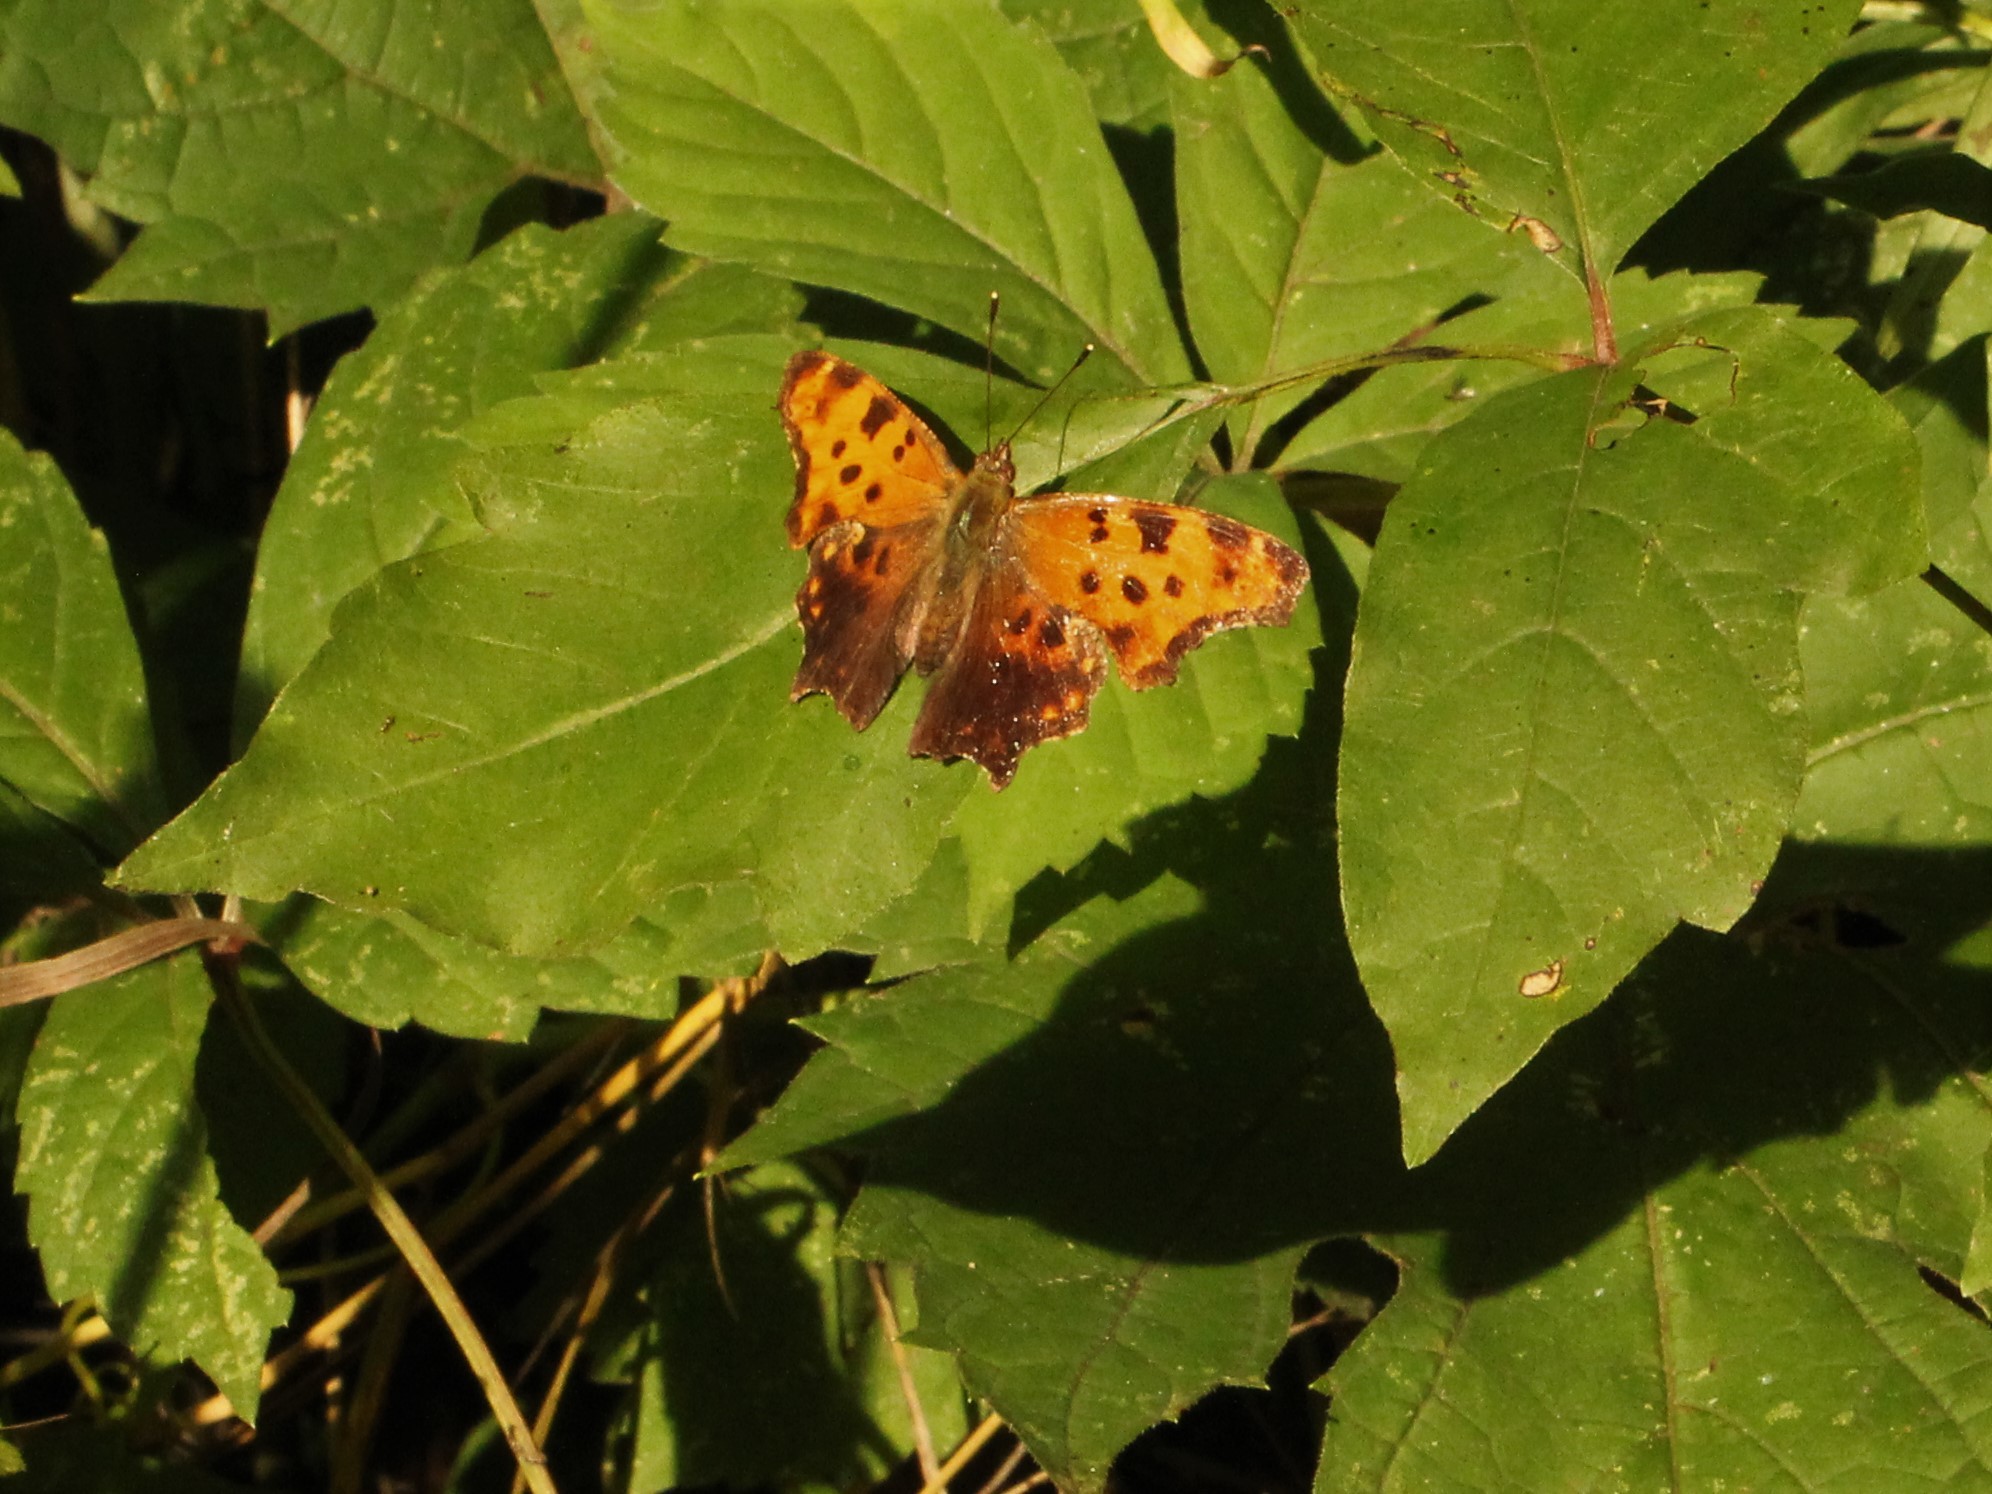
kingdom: Animalia
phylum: Arthropoda
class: Insecta
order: Lepidoptera
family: Nymphalidae
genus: Polygonia
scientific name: Polygonia comma
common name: Eastern comma
